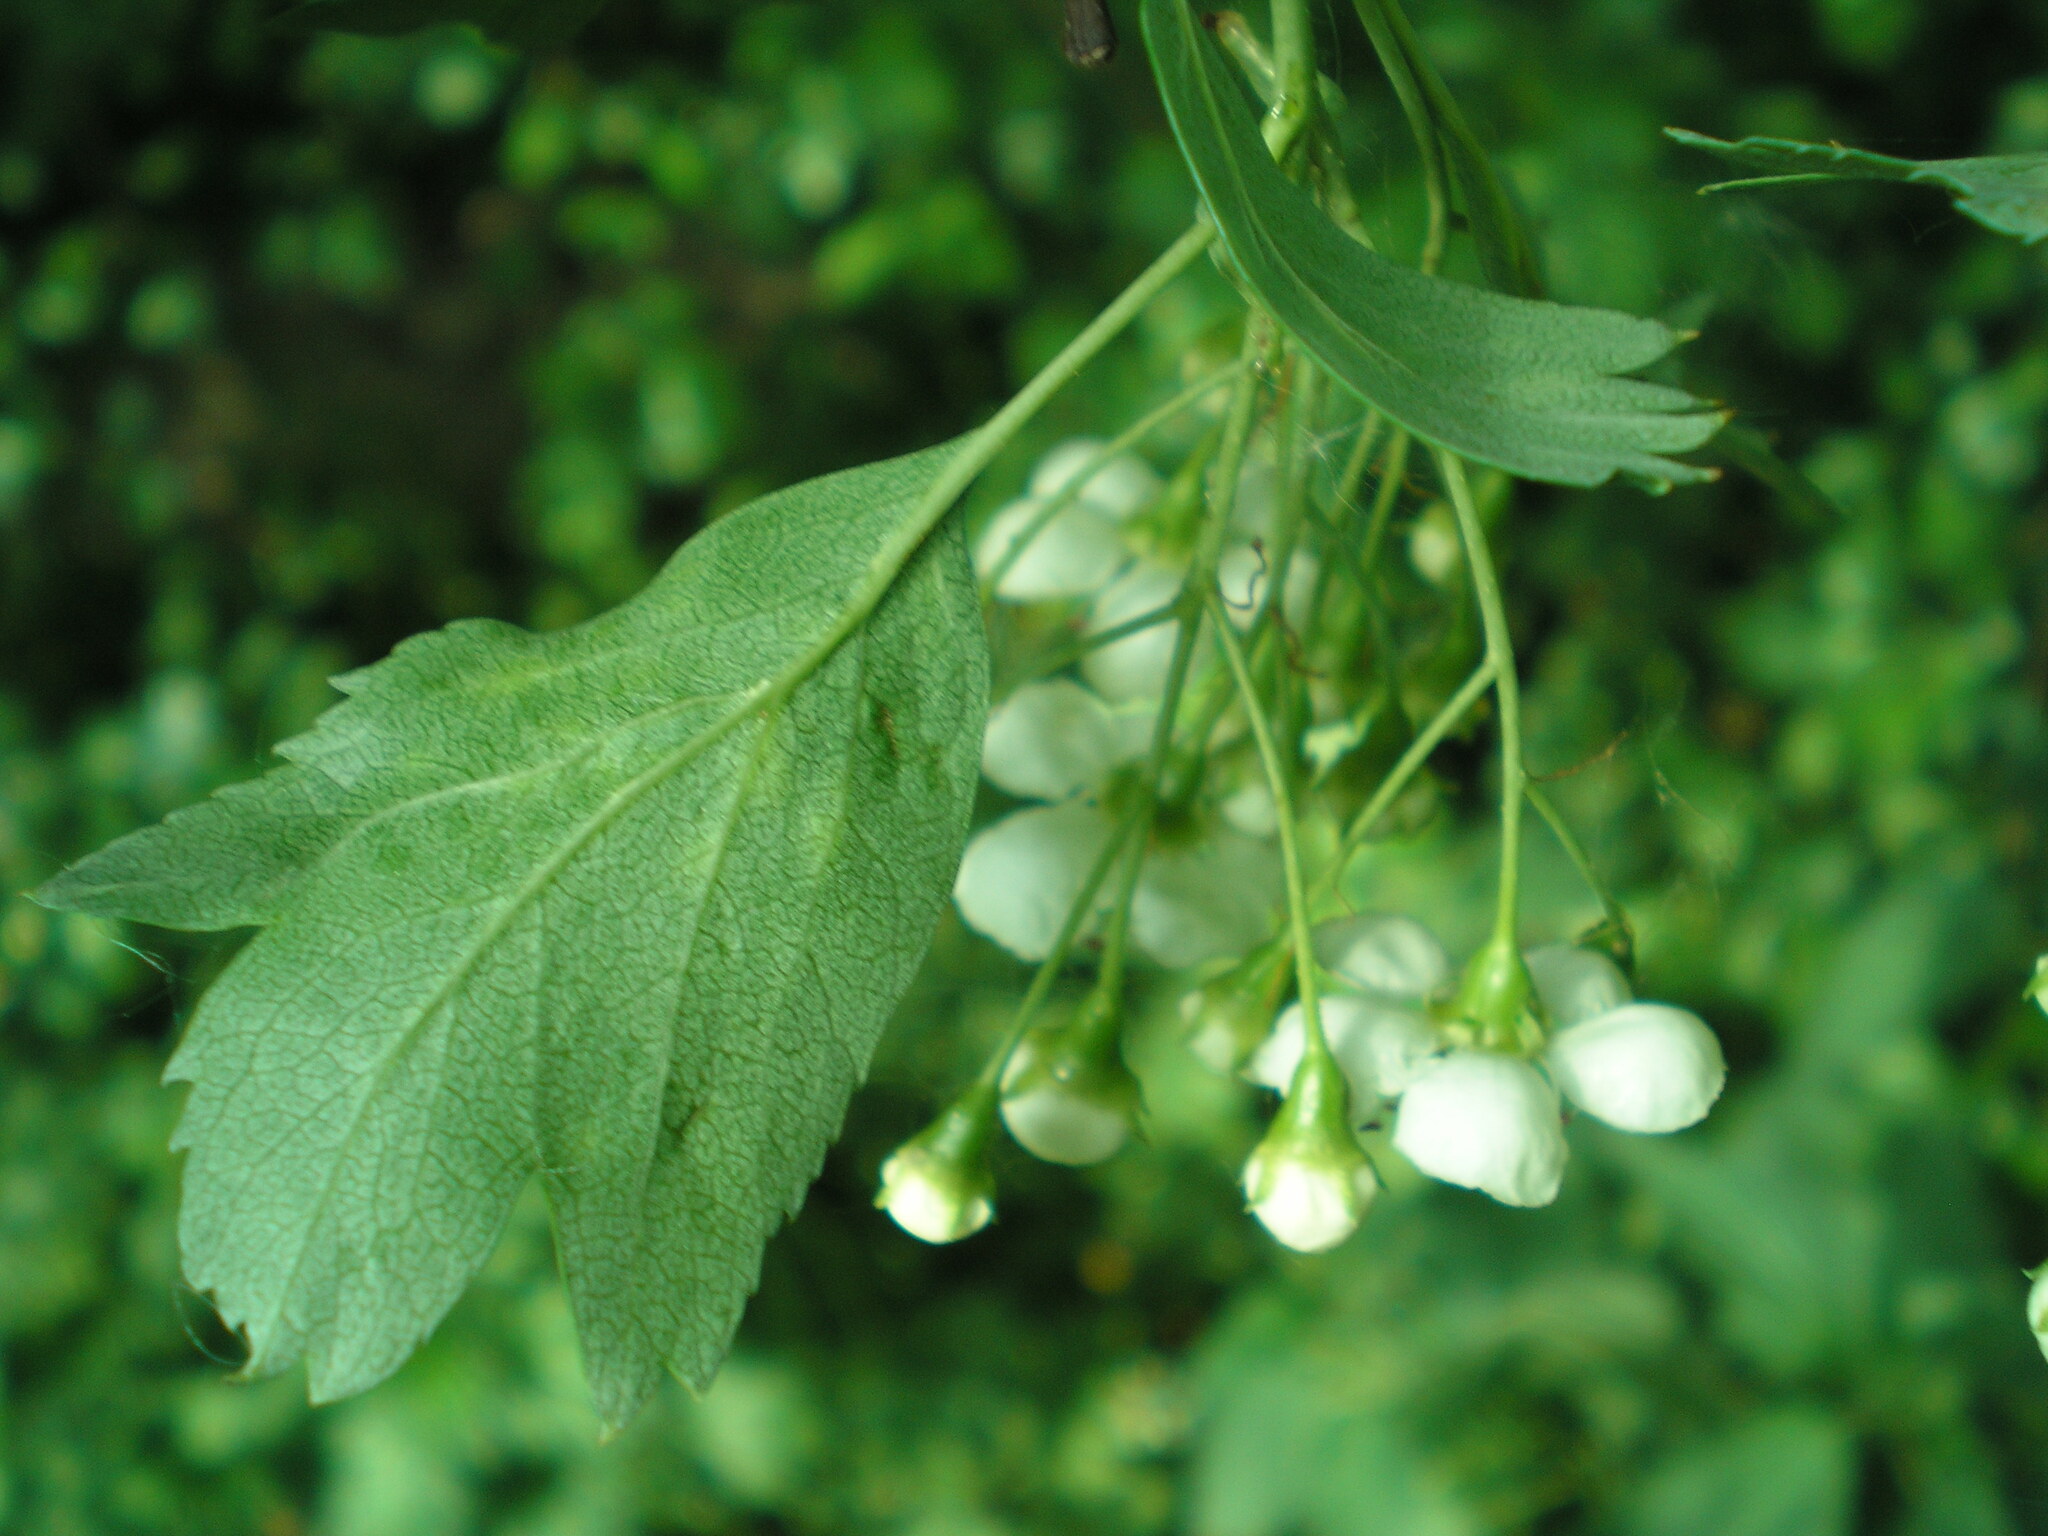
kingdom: Plantae
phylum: Tracheophyta
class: Magnoliopsida
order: Rosales
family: Rosaceae
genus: Crataegus
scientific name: Crataegus monogyna
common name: Hawthorn
